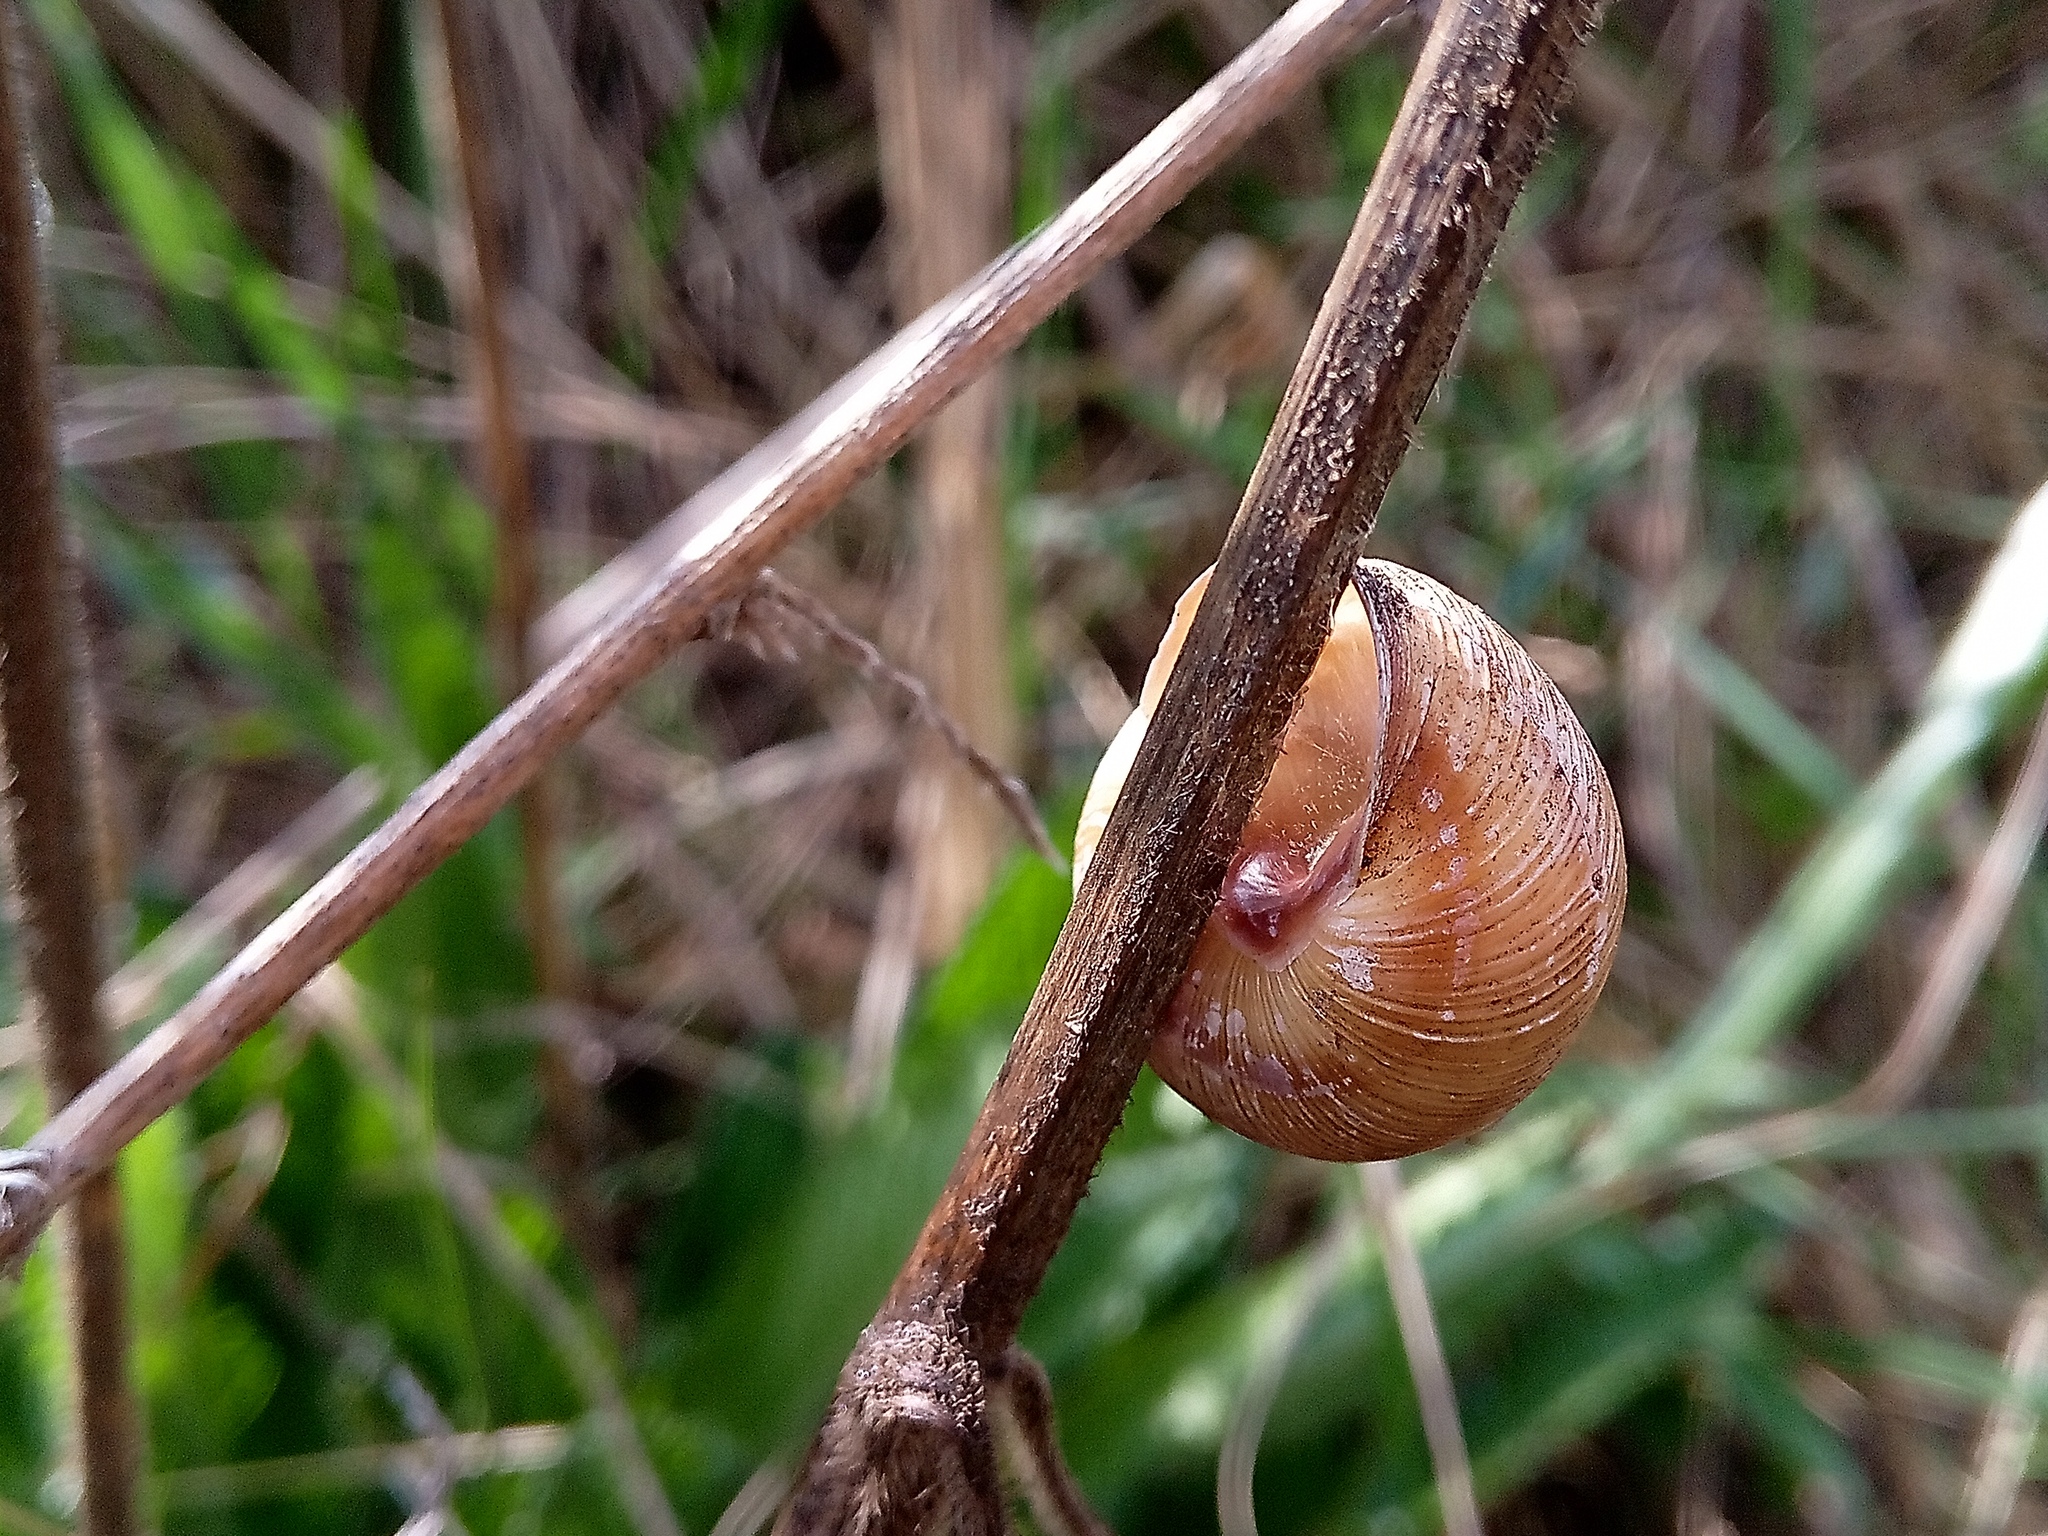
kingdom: Animalia
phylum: Mollusca
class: Gastropoda
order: Stylommatophora
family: Helicidae
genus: Caucasotachea
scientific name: Caucasotachea vindobonensis
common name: European helicid land snail
